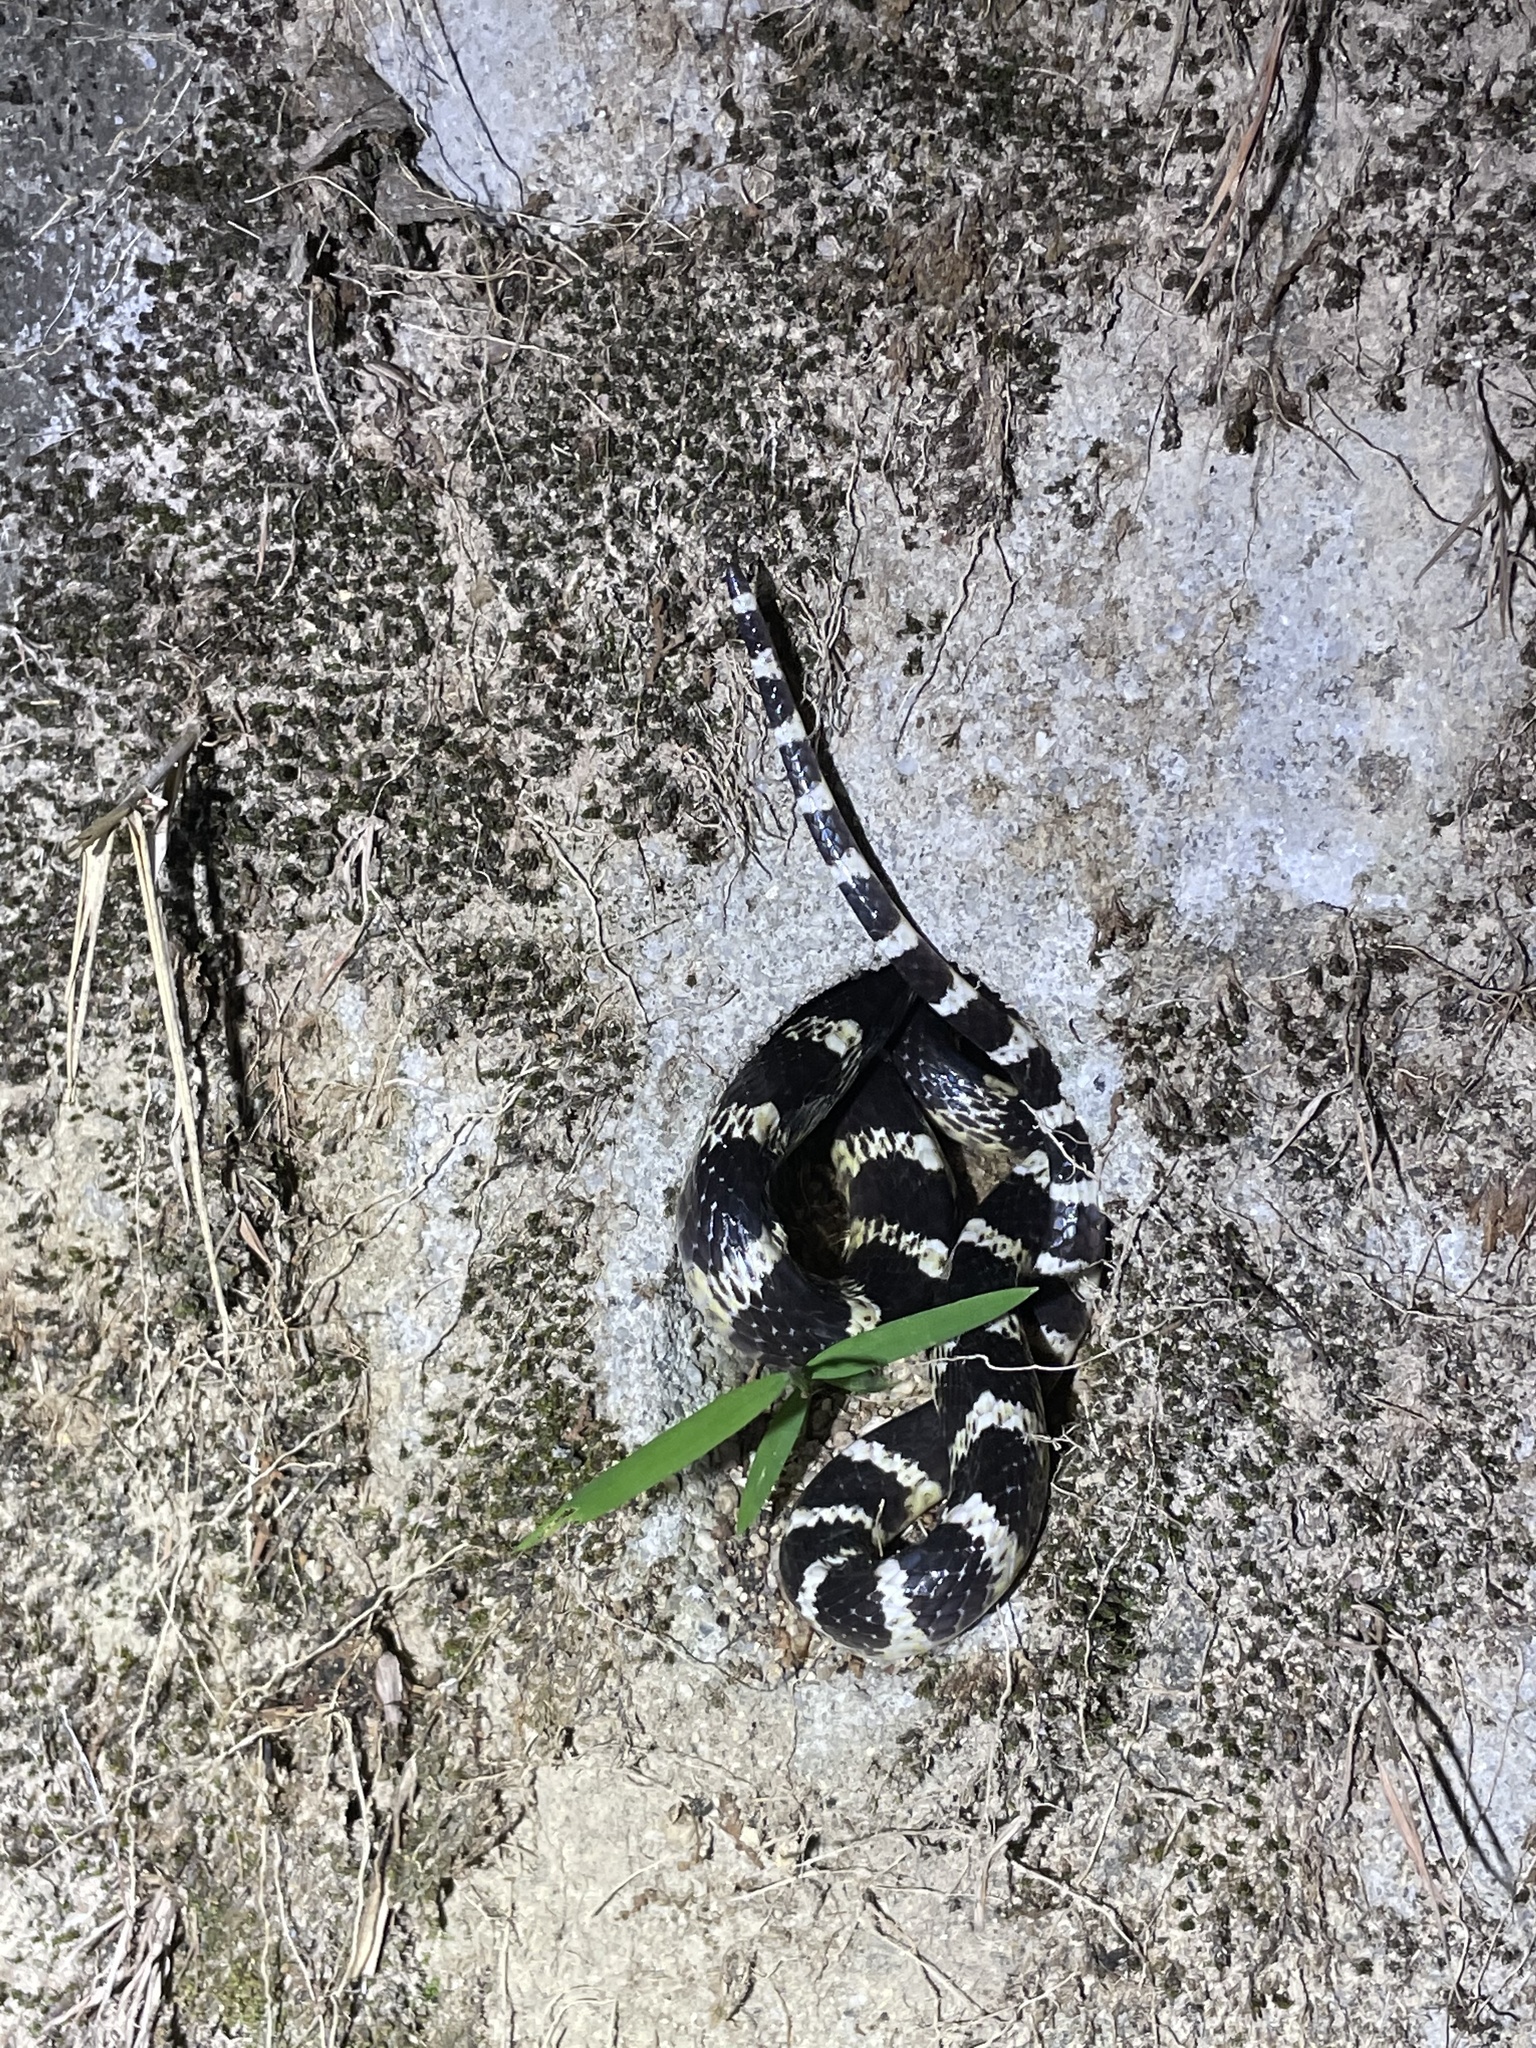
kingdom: Animalia
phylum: Chordata
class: Squamata
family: Elapidae
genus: Bungarus
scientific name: Bungarus multicinctus
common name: Many-banded krait
